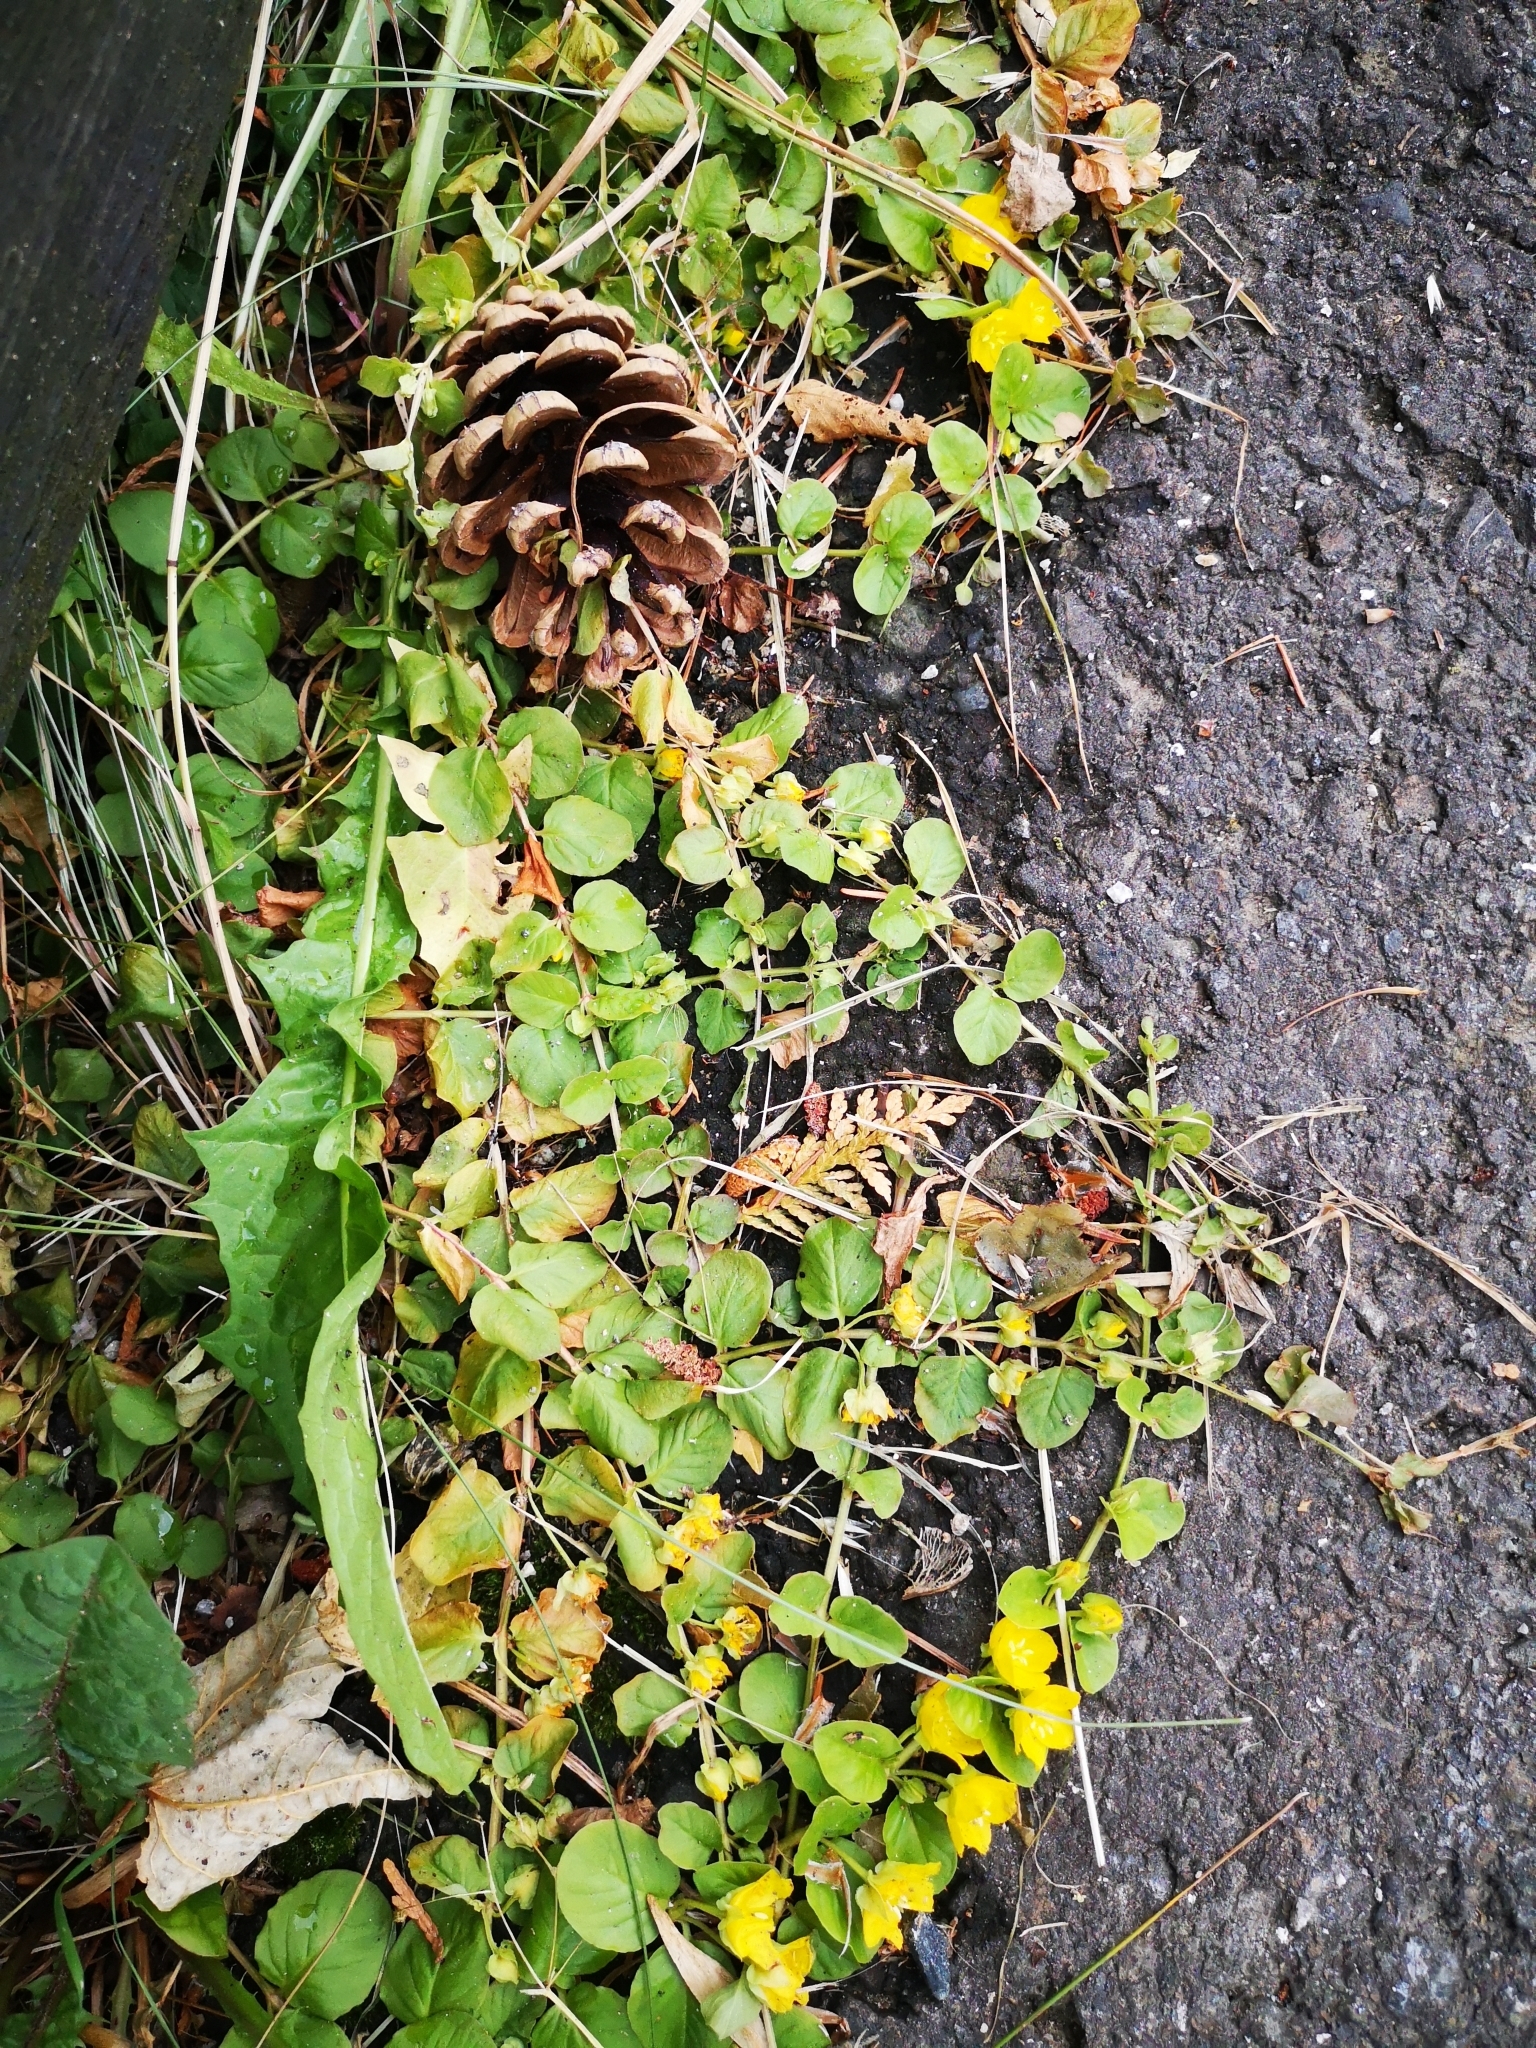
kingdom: Plantae
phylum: Tracheophyta
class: Magnoliopsida
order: Ericales
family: Primulaceae
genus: Lysimachia
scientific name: Lysimachia nummularia
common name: Moneywort
